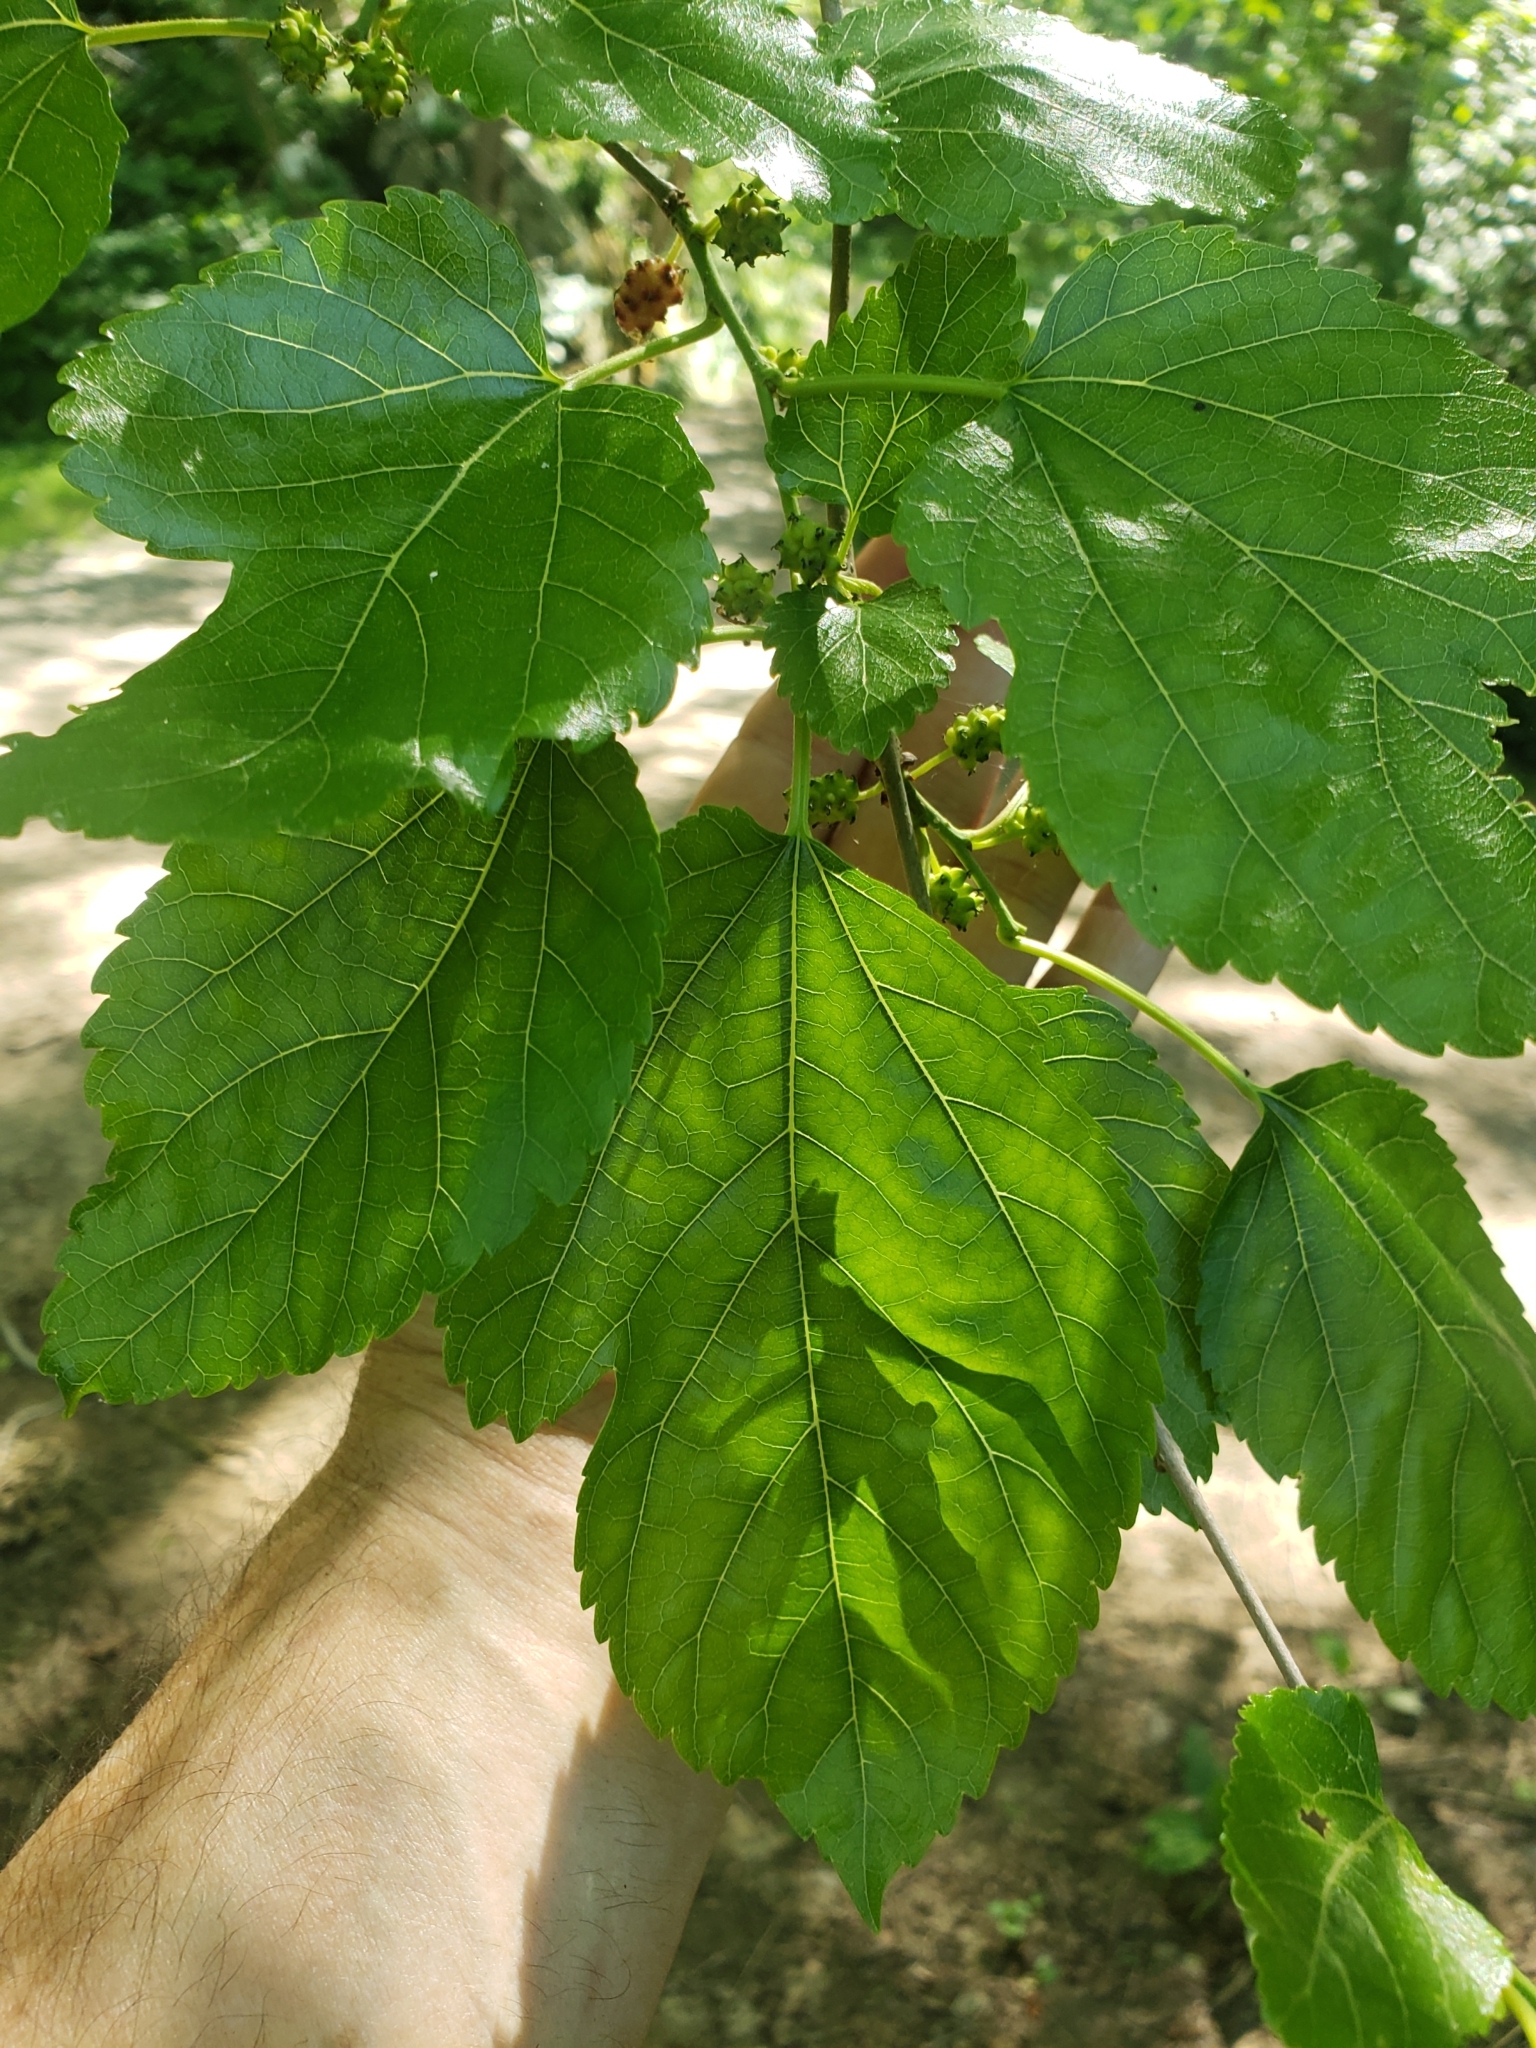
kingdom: Plantae
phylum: Tracheophyta
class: Magnoliopsida
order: Rosales
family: Moraceae
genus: Morus
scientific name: Morus alba
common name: White mulberry
